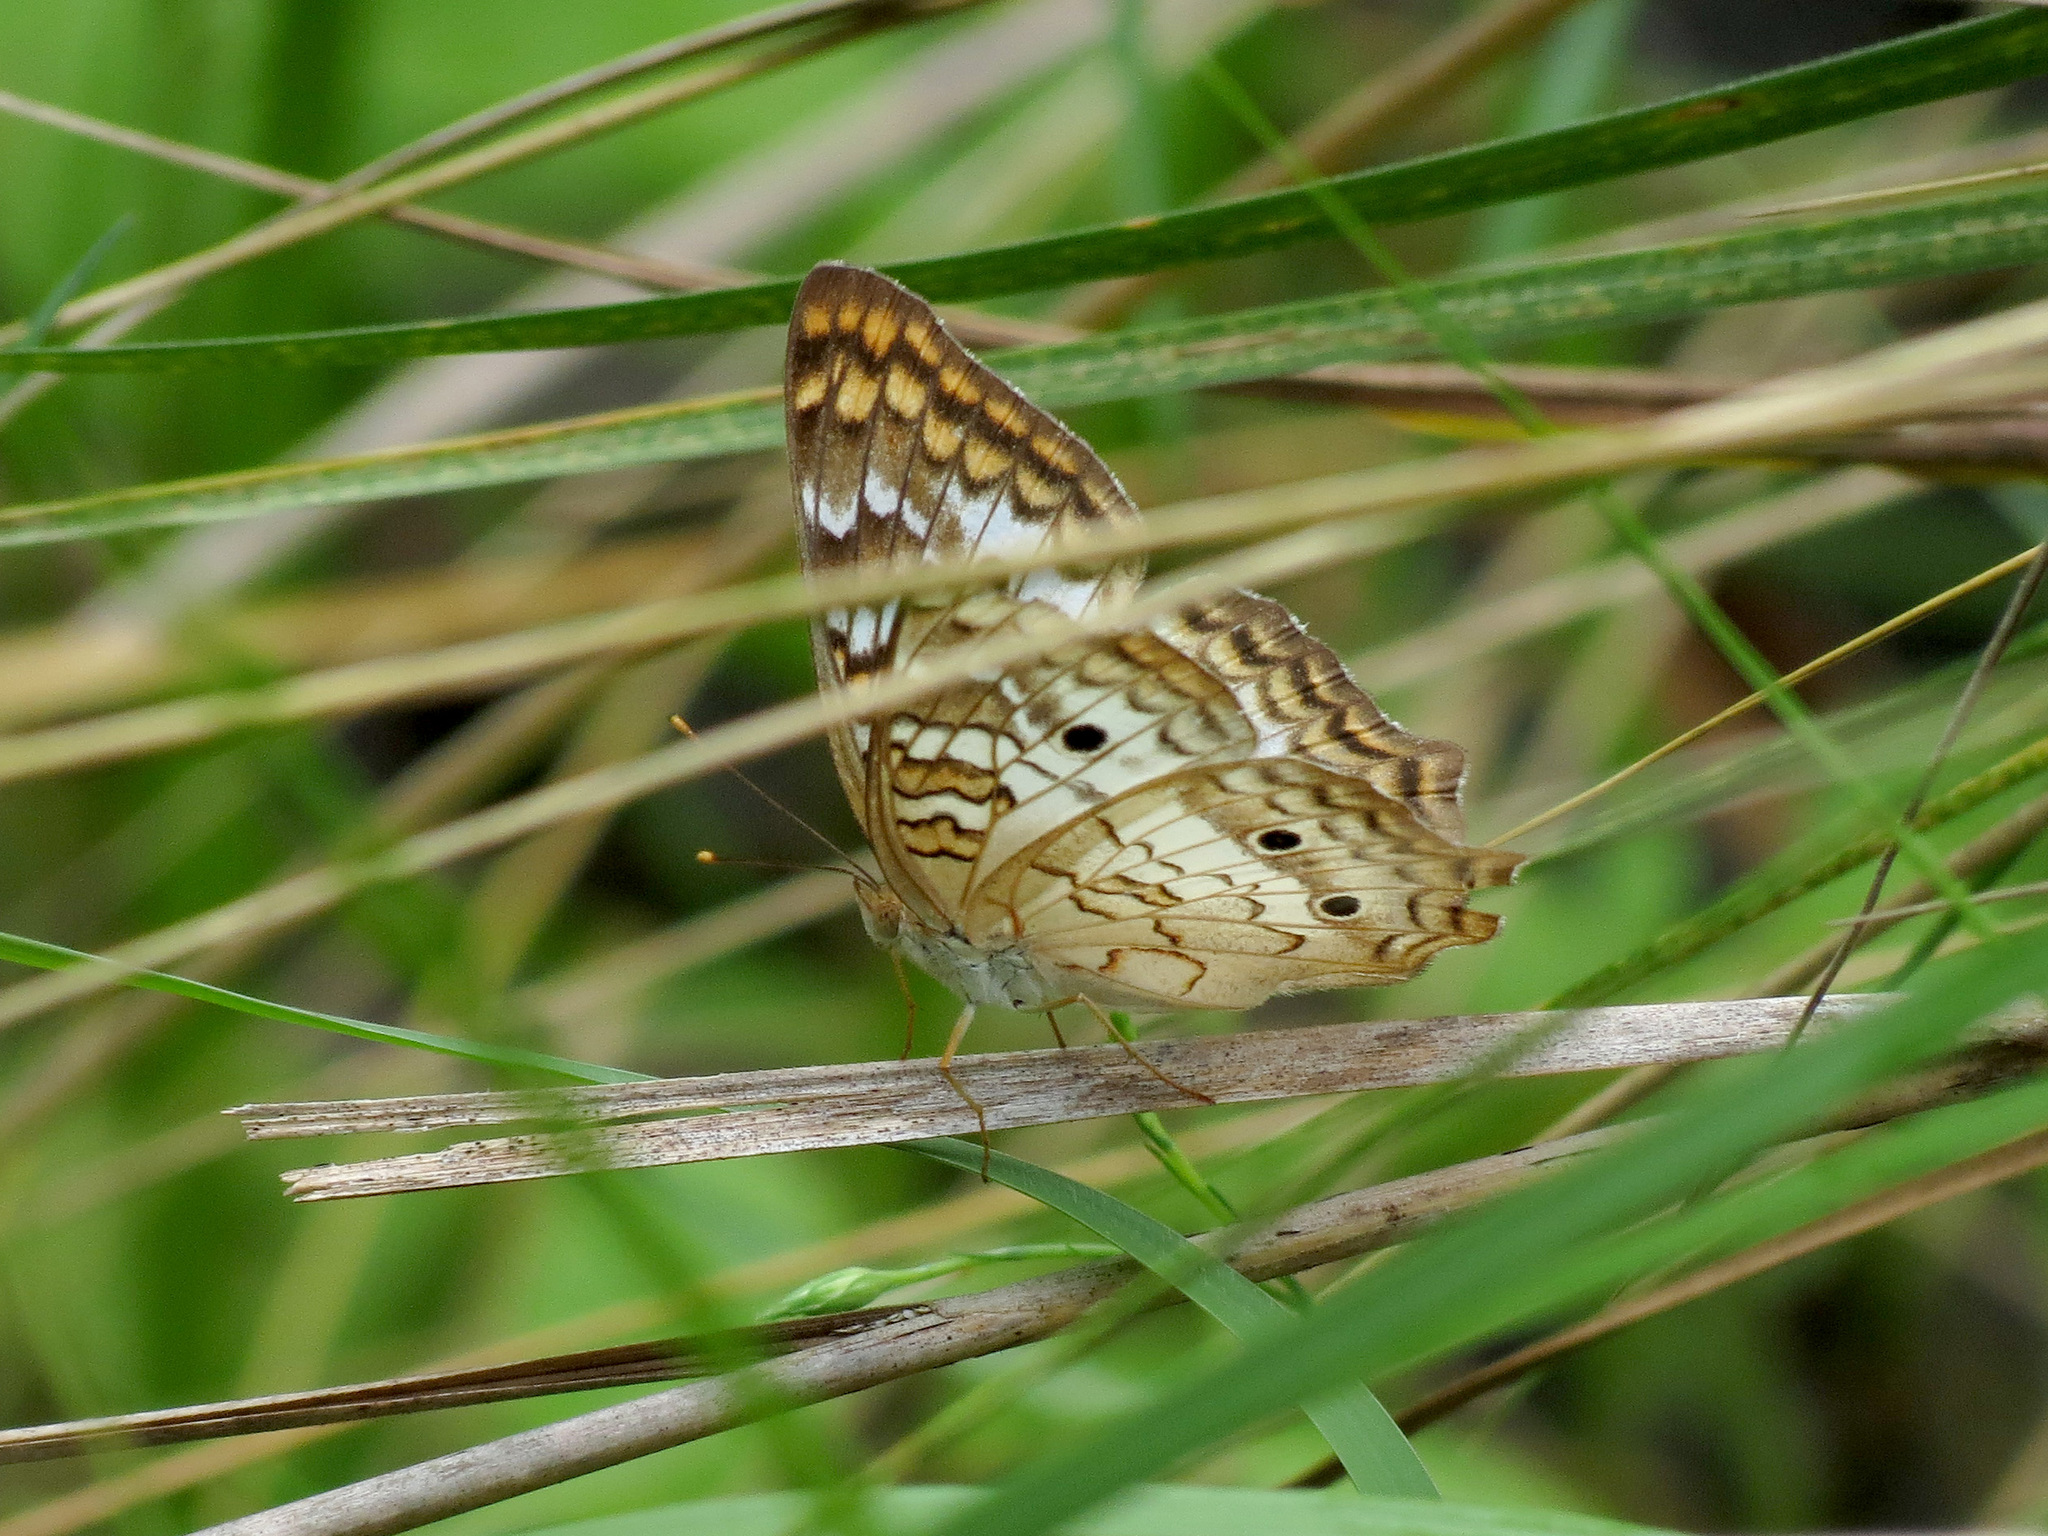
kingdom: Animalia
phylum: Arthropoda
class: Insecta
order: Lepidoptera
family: Nymphalidae
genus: Anartia
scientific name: Anartia jatrophae
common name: White peacock
